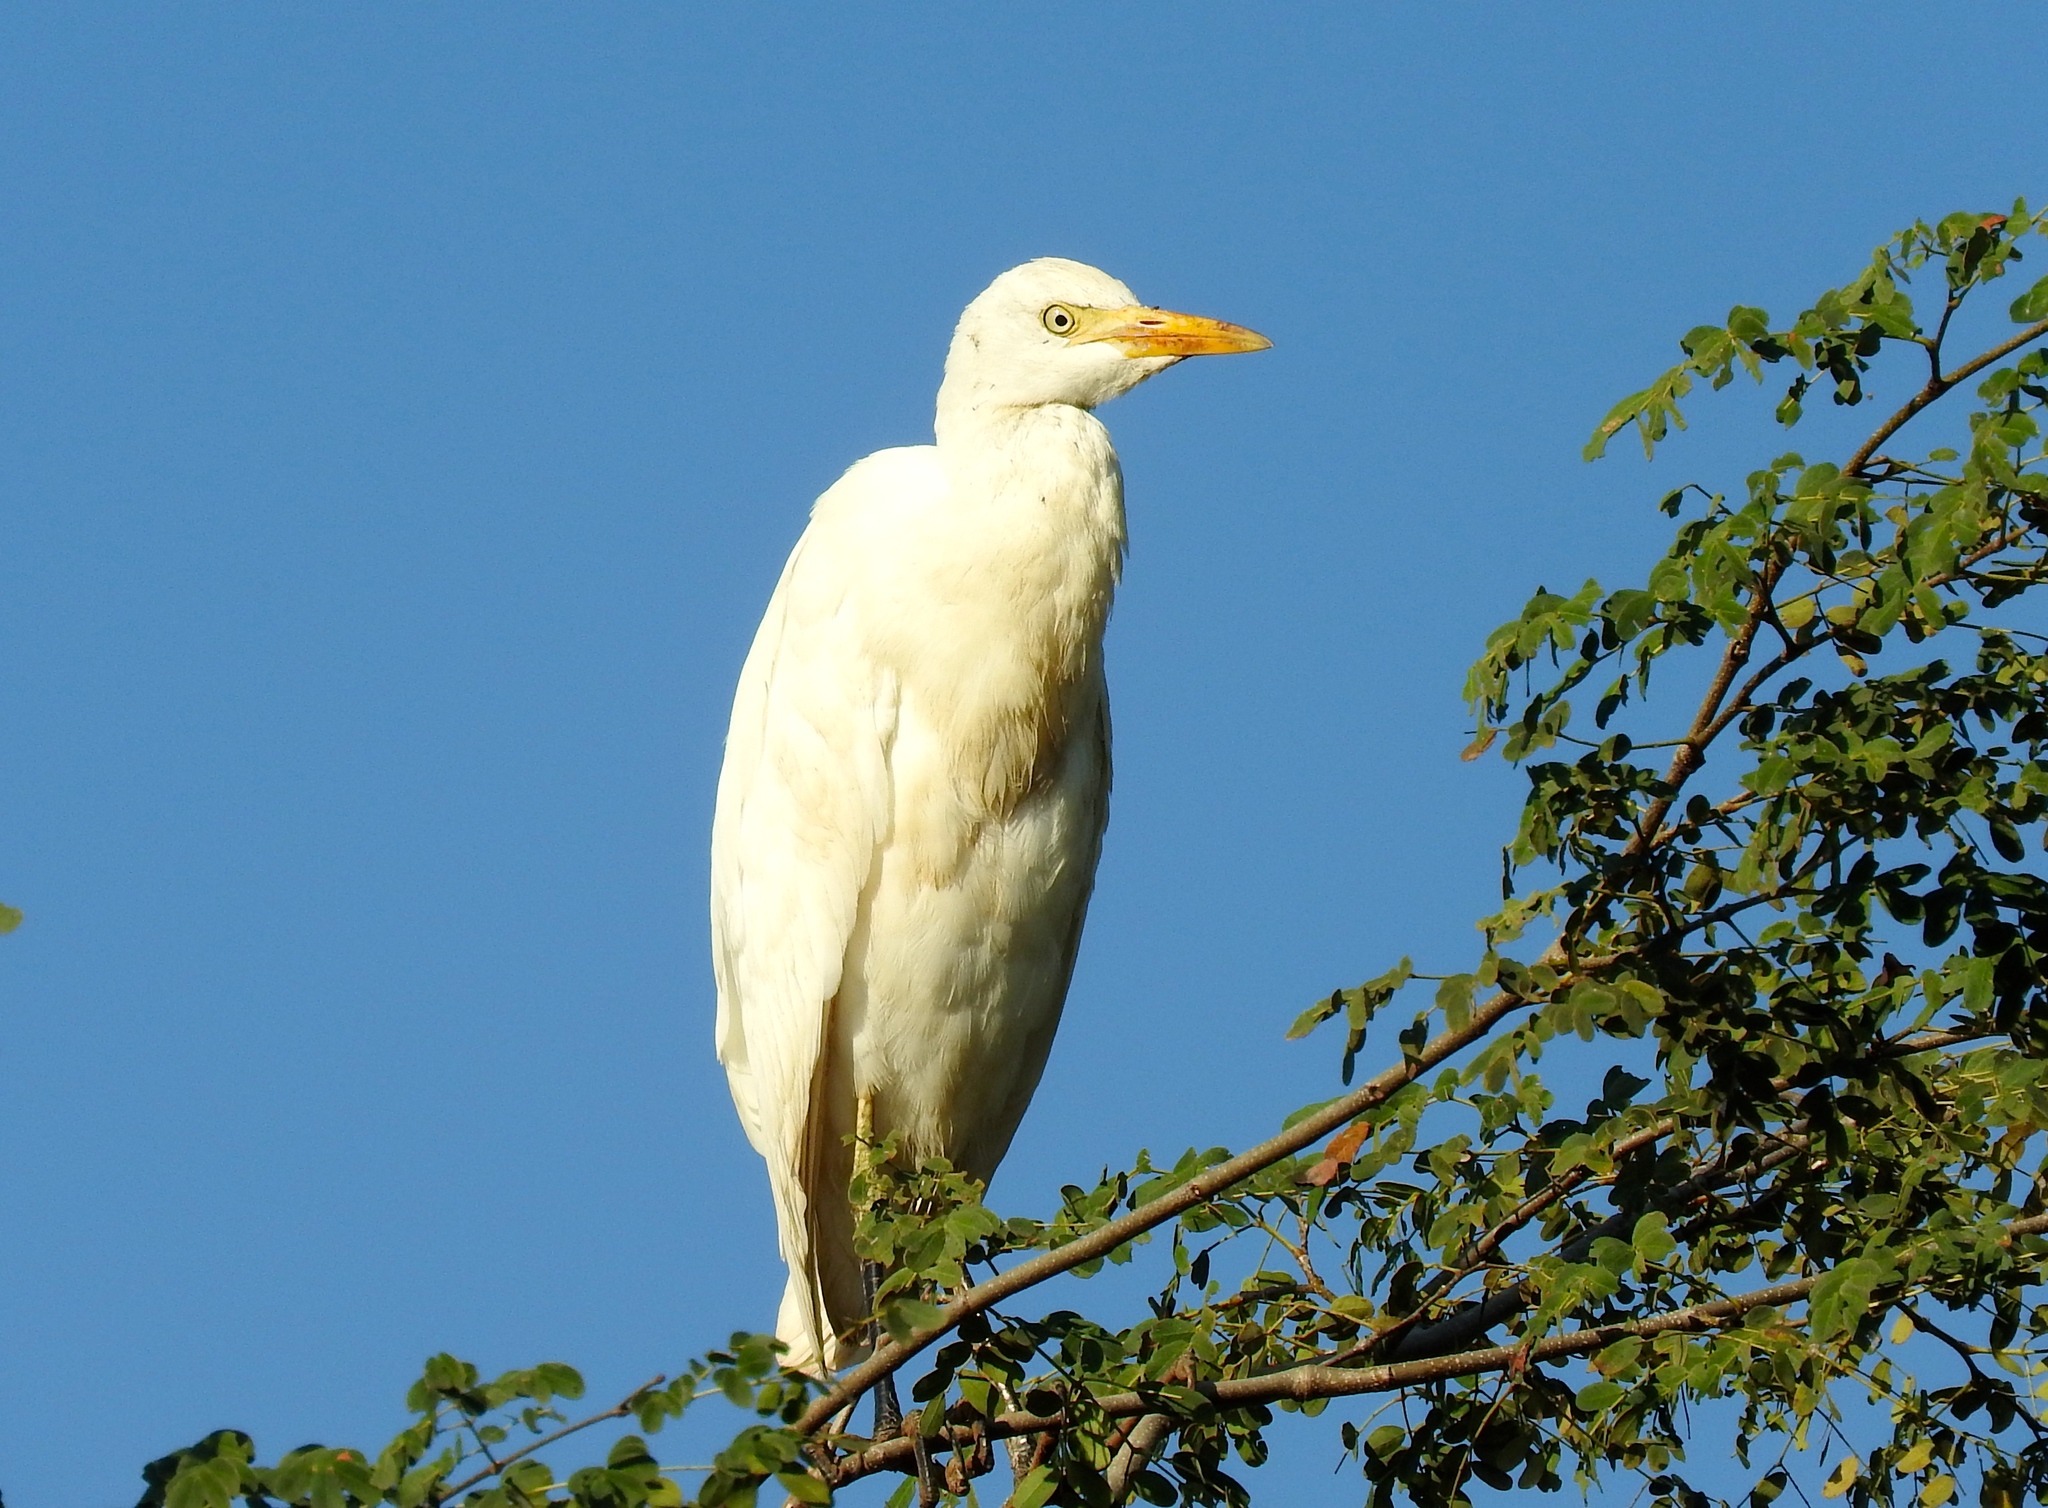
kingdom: Animalia
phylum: Chordata
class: Aves
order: Pelecaniformes
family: Ardeidae
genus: Bubulcus
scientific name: Bubulcus ibis
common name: Cattle egret
